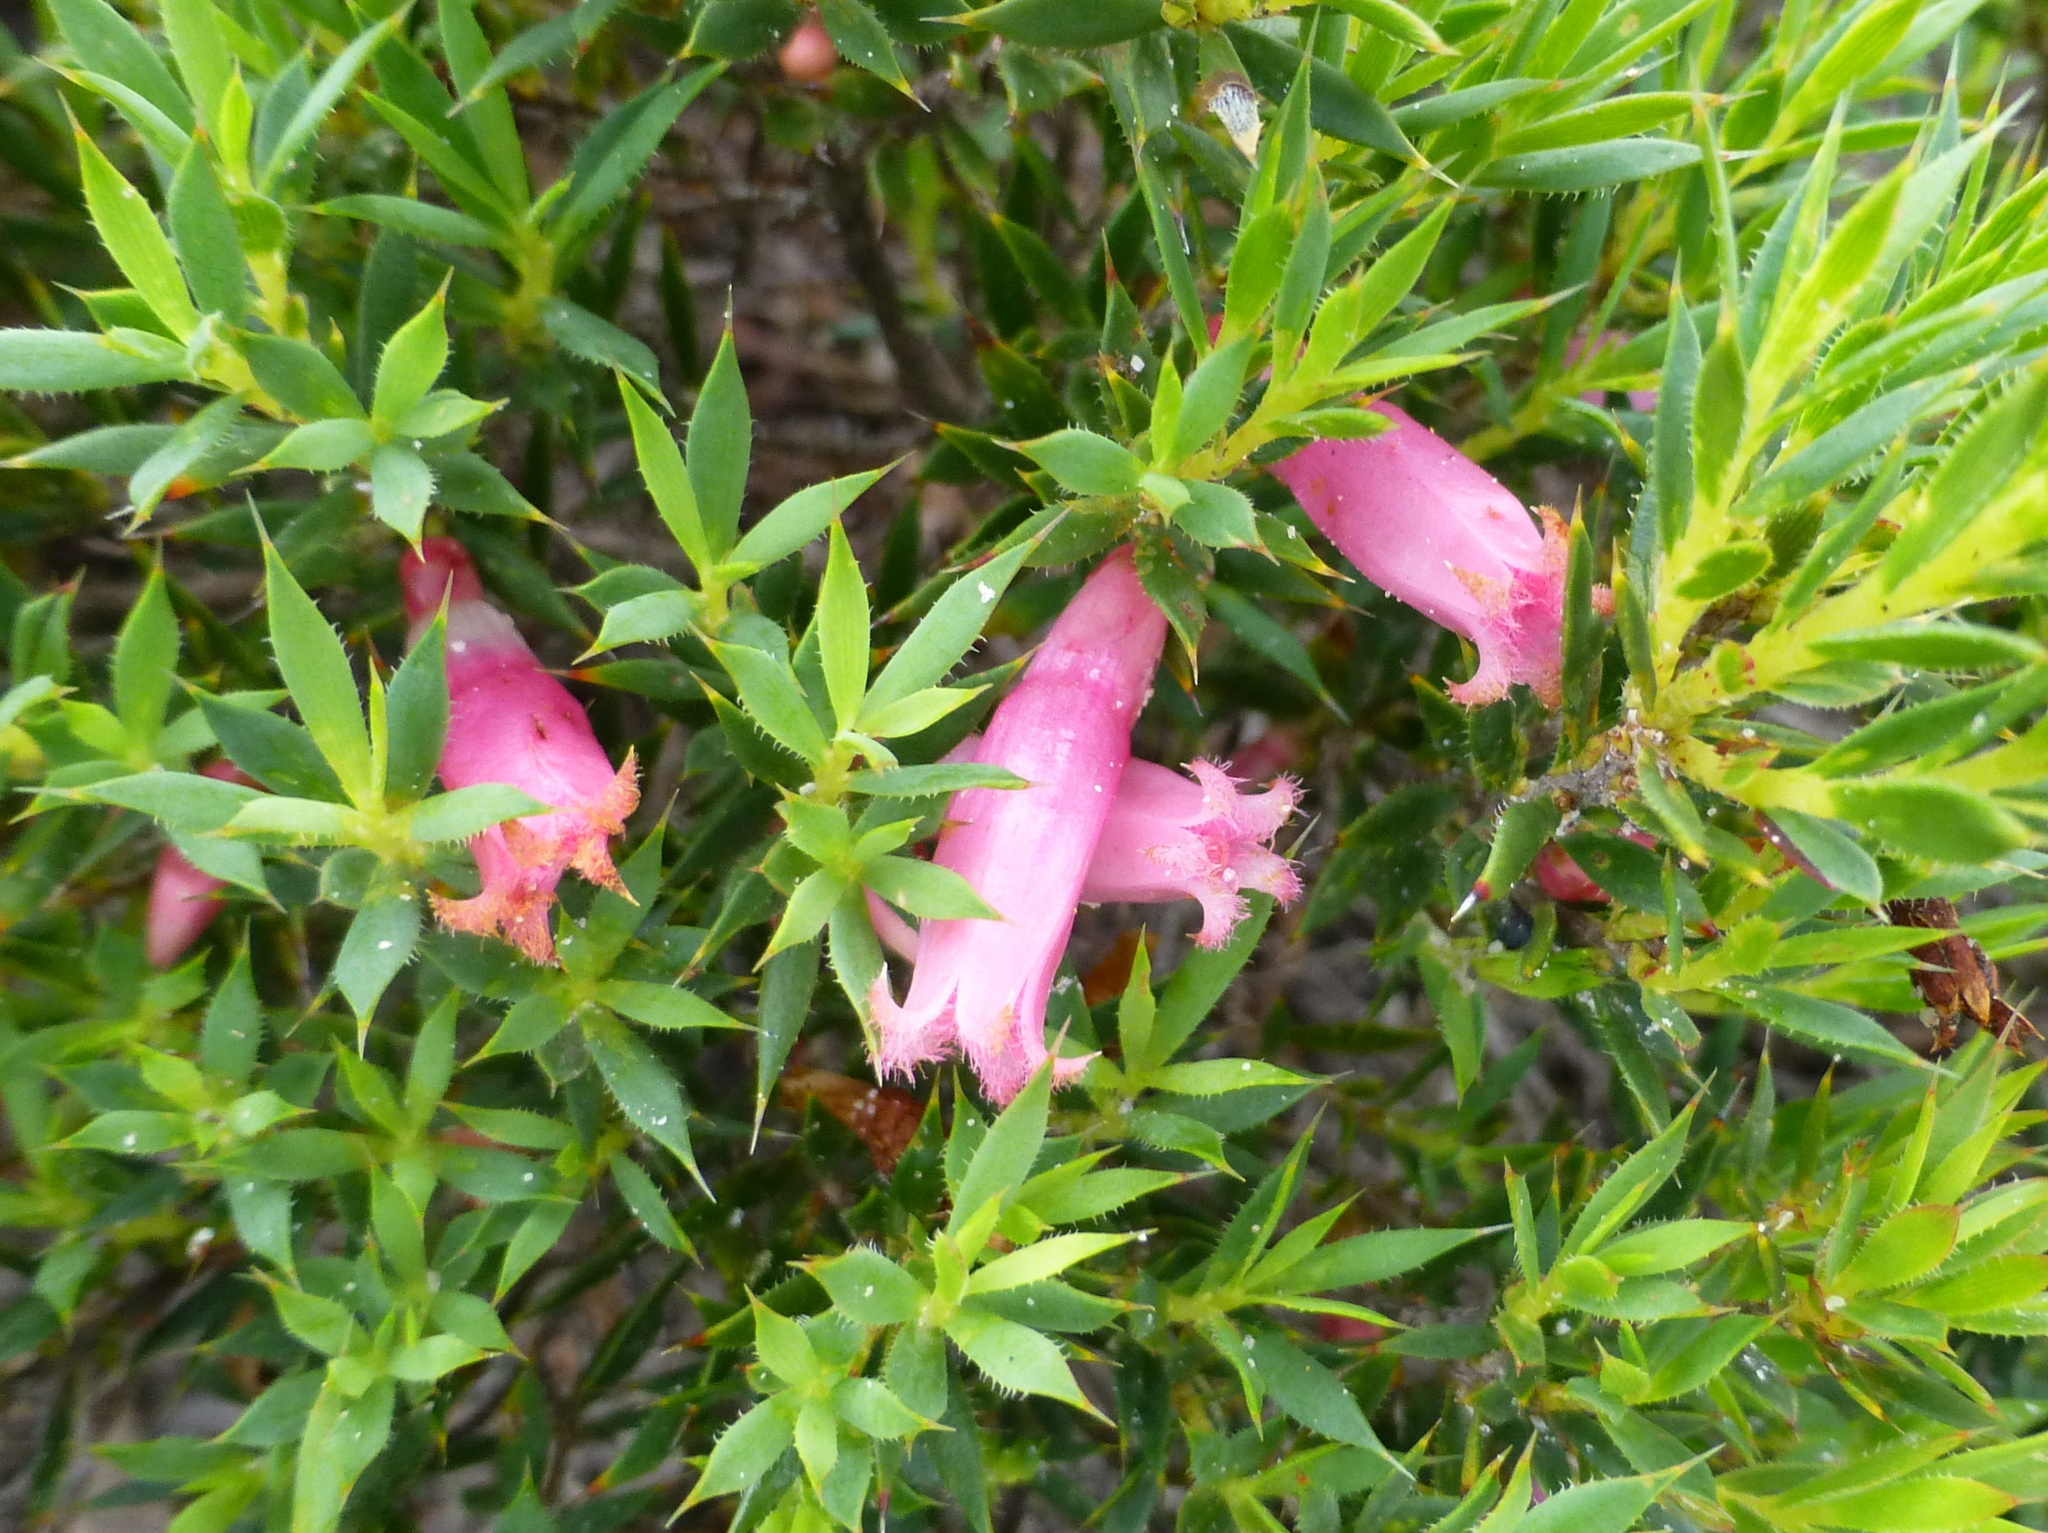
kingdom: Plantae
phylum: Tracheophyta
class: Magnoliopsida
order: Ericales
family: Ericaceae
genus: Styphelia
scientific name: Styphelia microdonta
